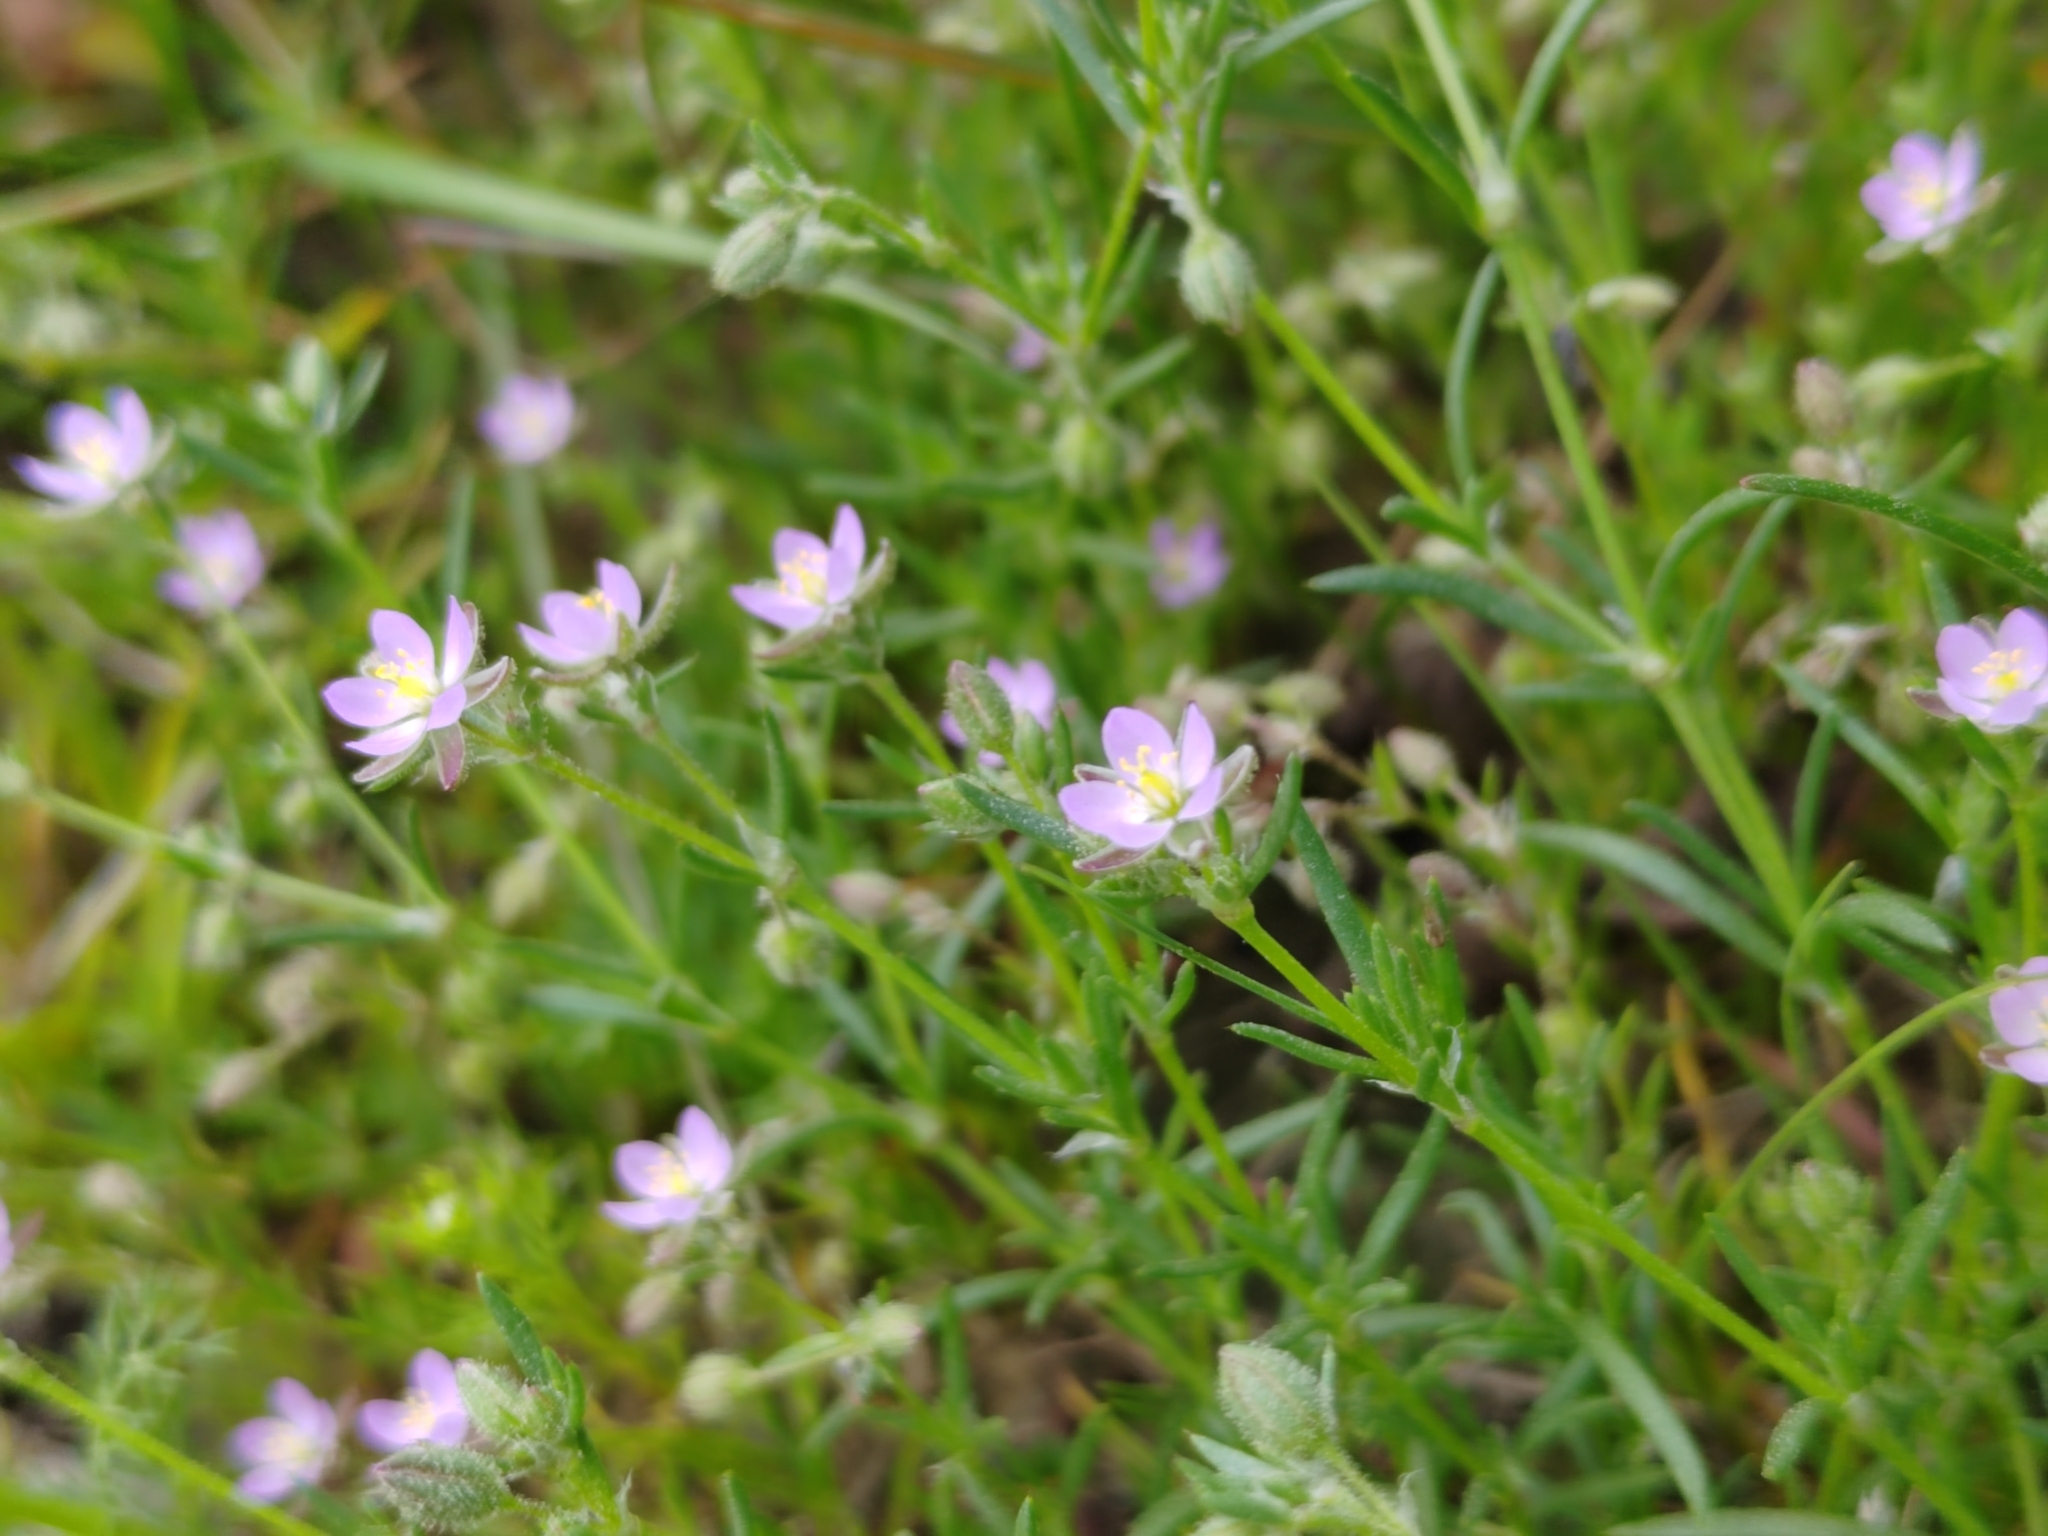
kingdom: Plantae
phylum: Tracheophyta
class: Magnoliopsida
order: Caryophyllales
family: Caryophyllaceae
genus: Spergularia
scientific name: Spergularia rubra
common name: Red sand-spurrey
